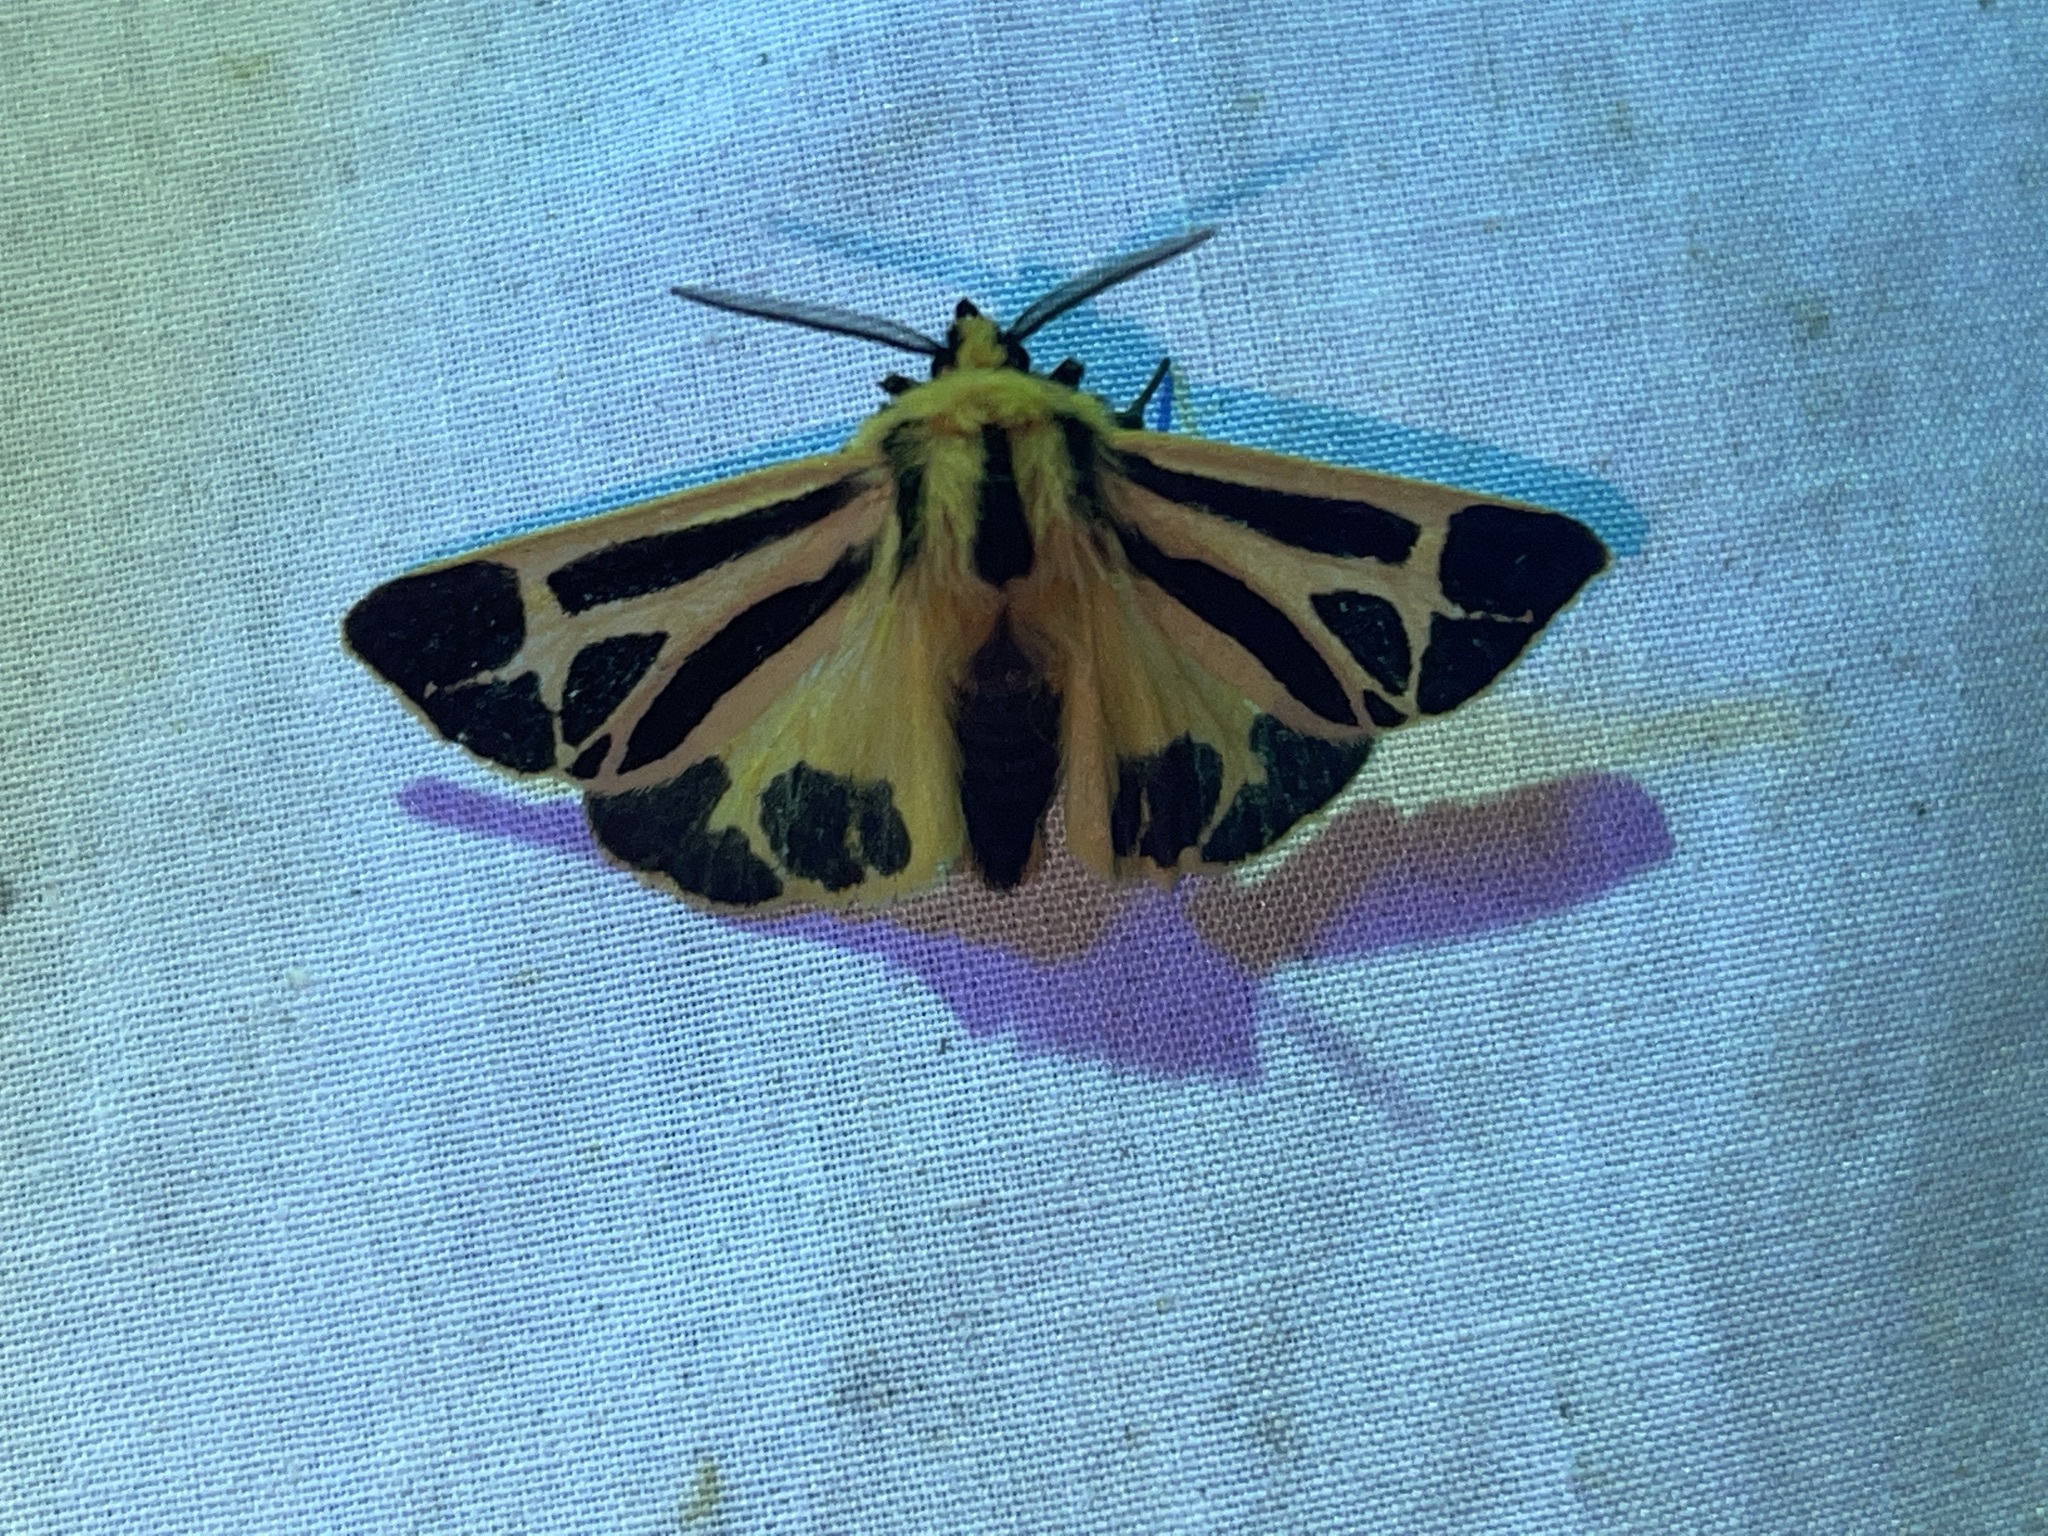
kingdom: Animalia
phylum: Arthropoda
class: Insecta
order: Lepidoptera
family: Erebidae
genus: Apantesis
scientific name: Apantesis nais
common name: Nais tiger moth
